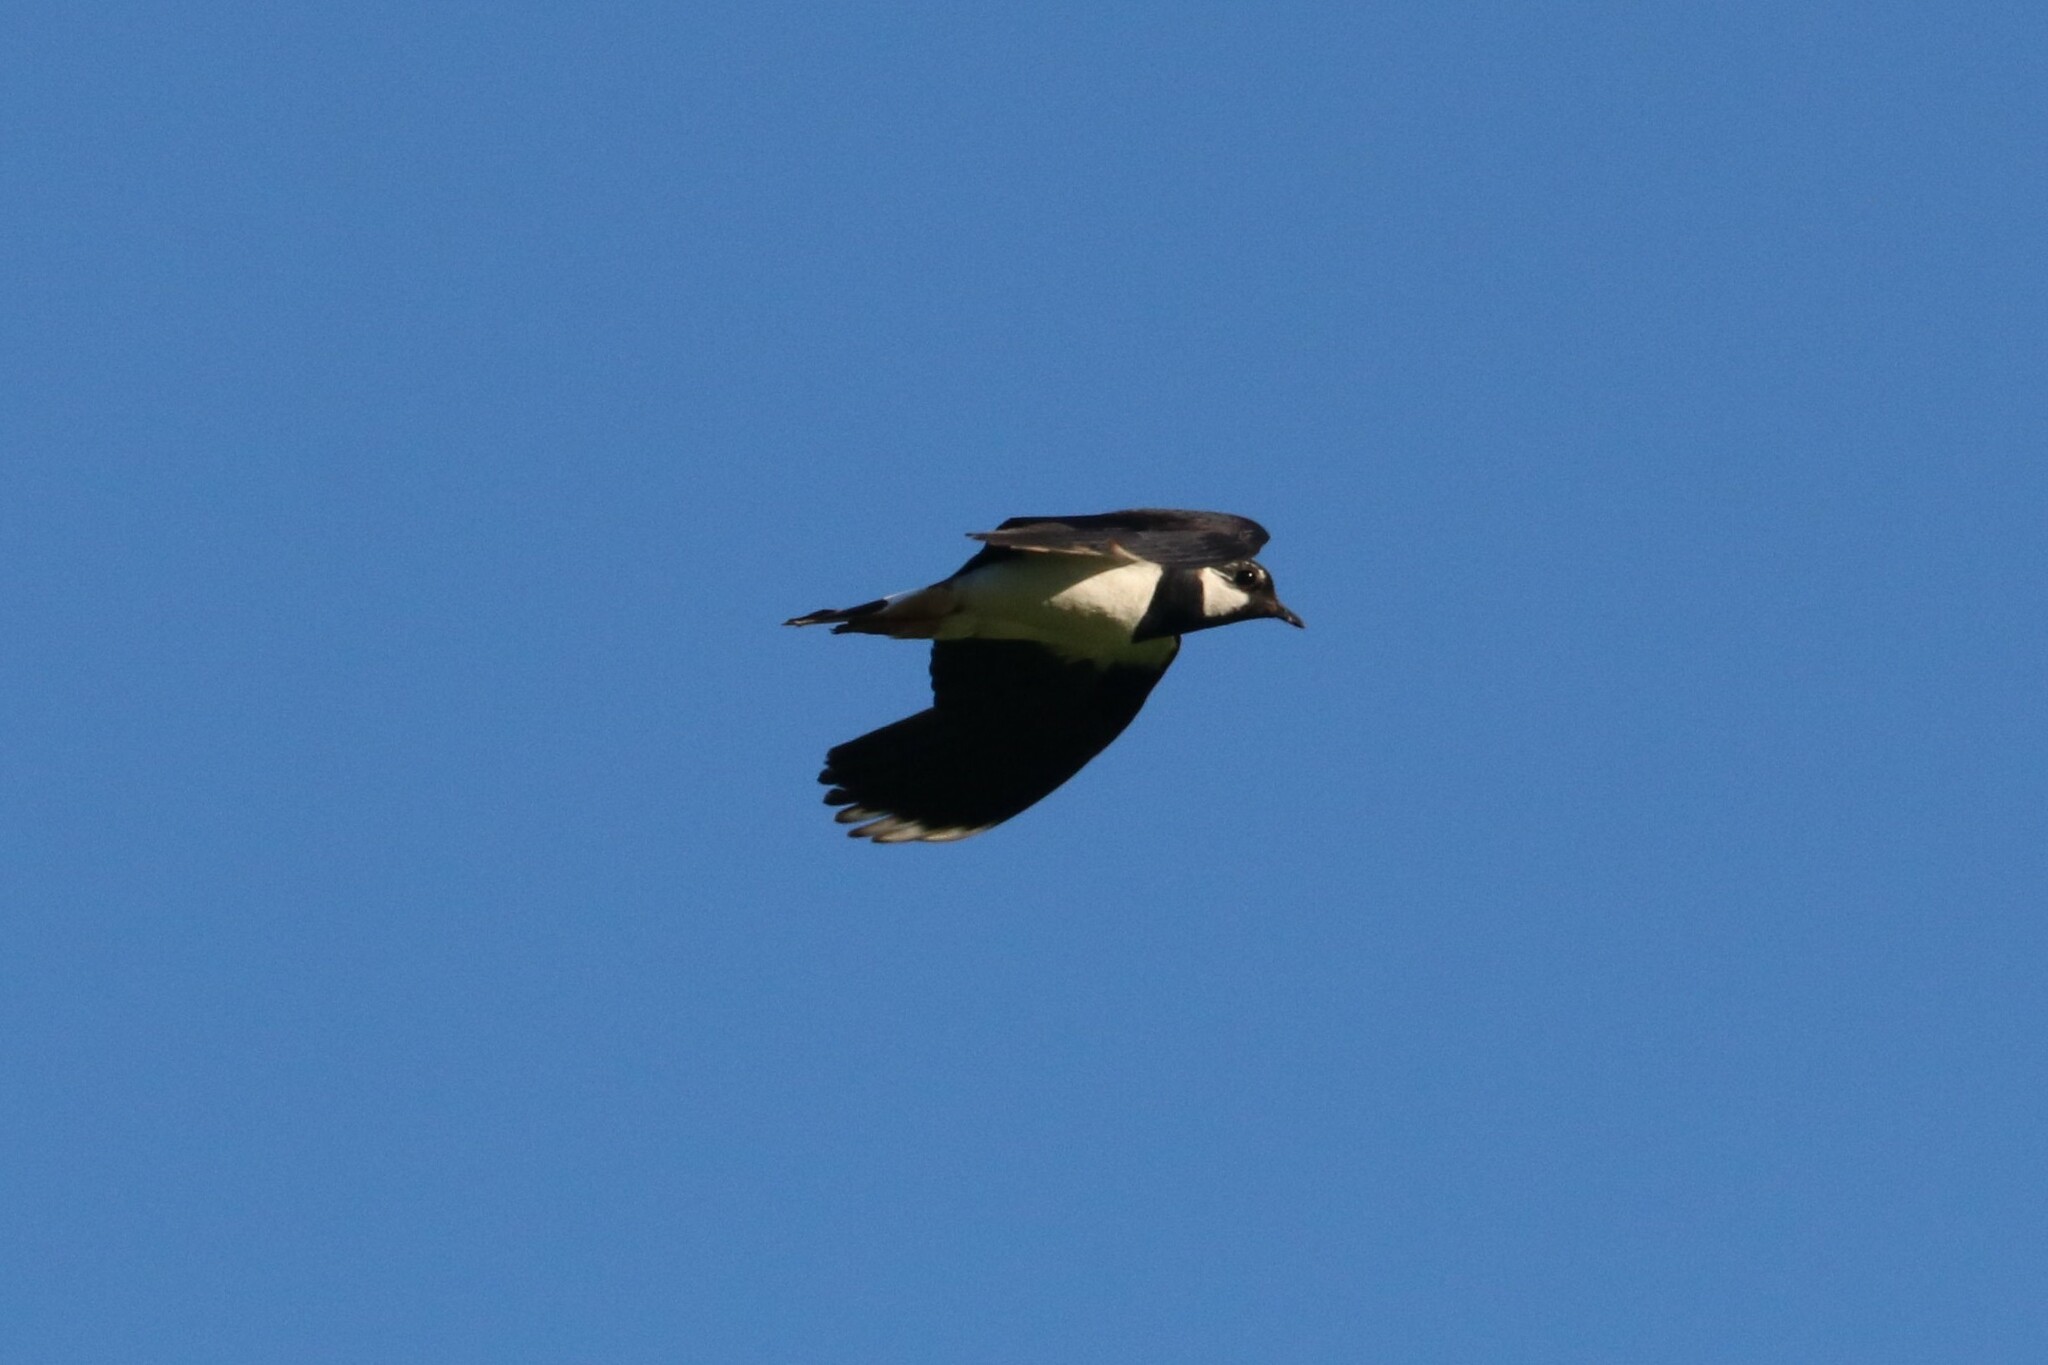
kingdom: Animalia
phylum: Chordata
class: Aves
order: Charadriiformes
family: Charadriidae
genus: Vanellus
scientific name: Vanellus vanellus
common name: Northern lapwing
